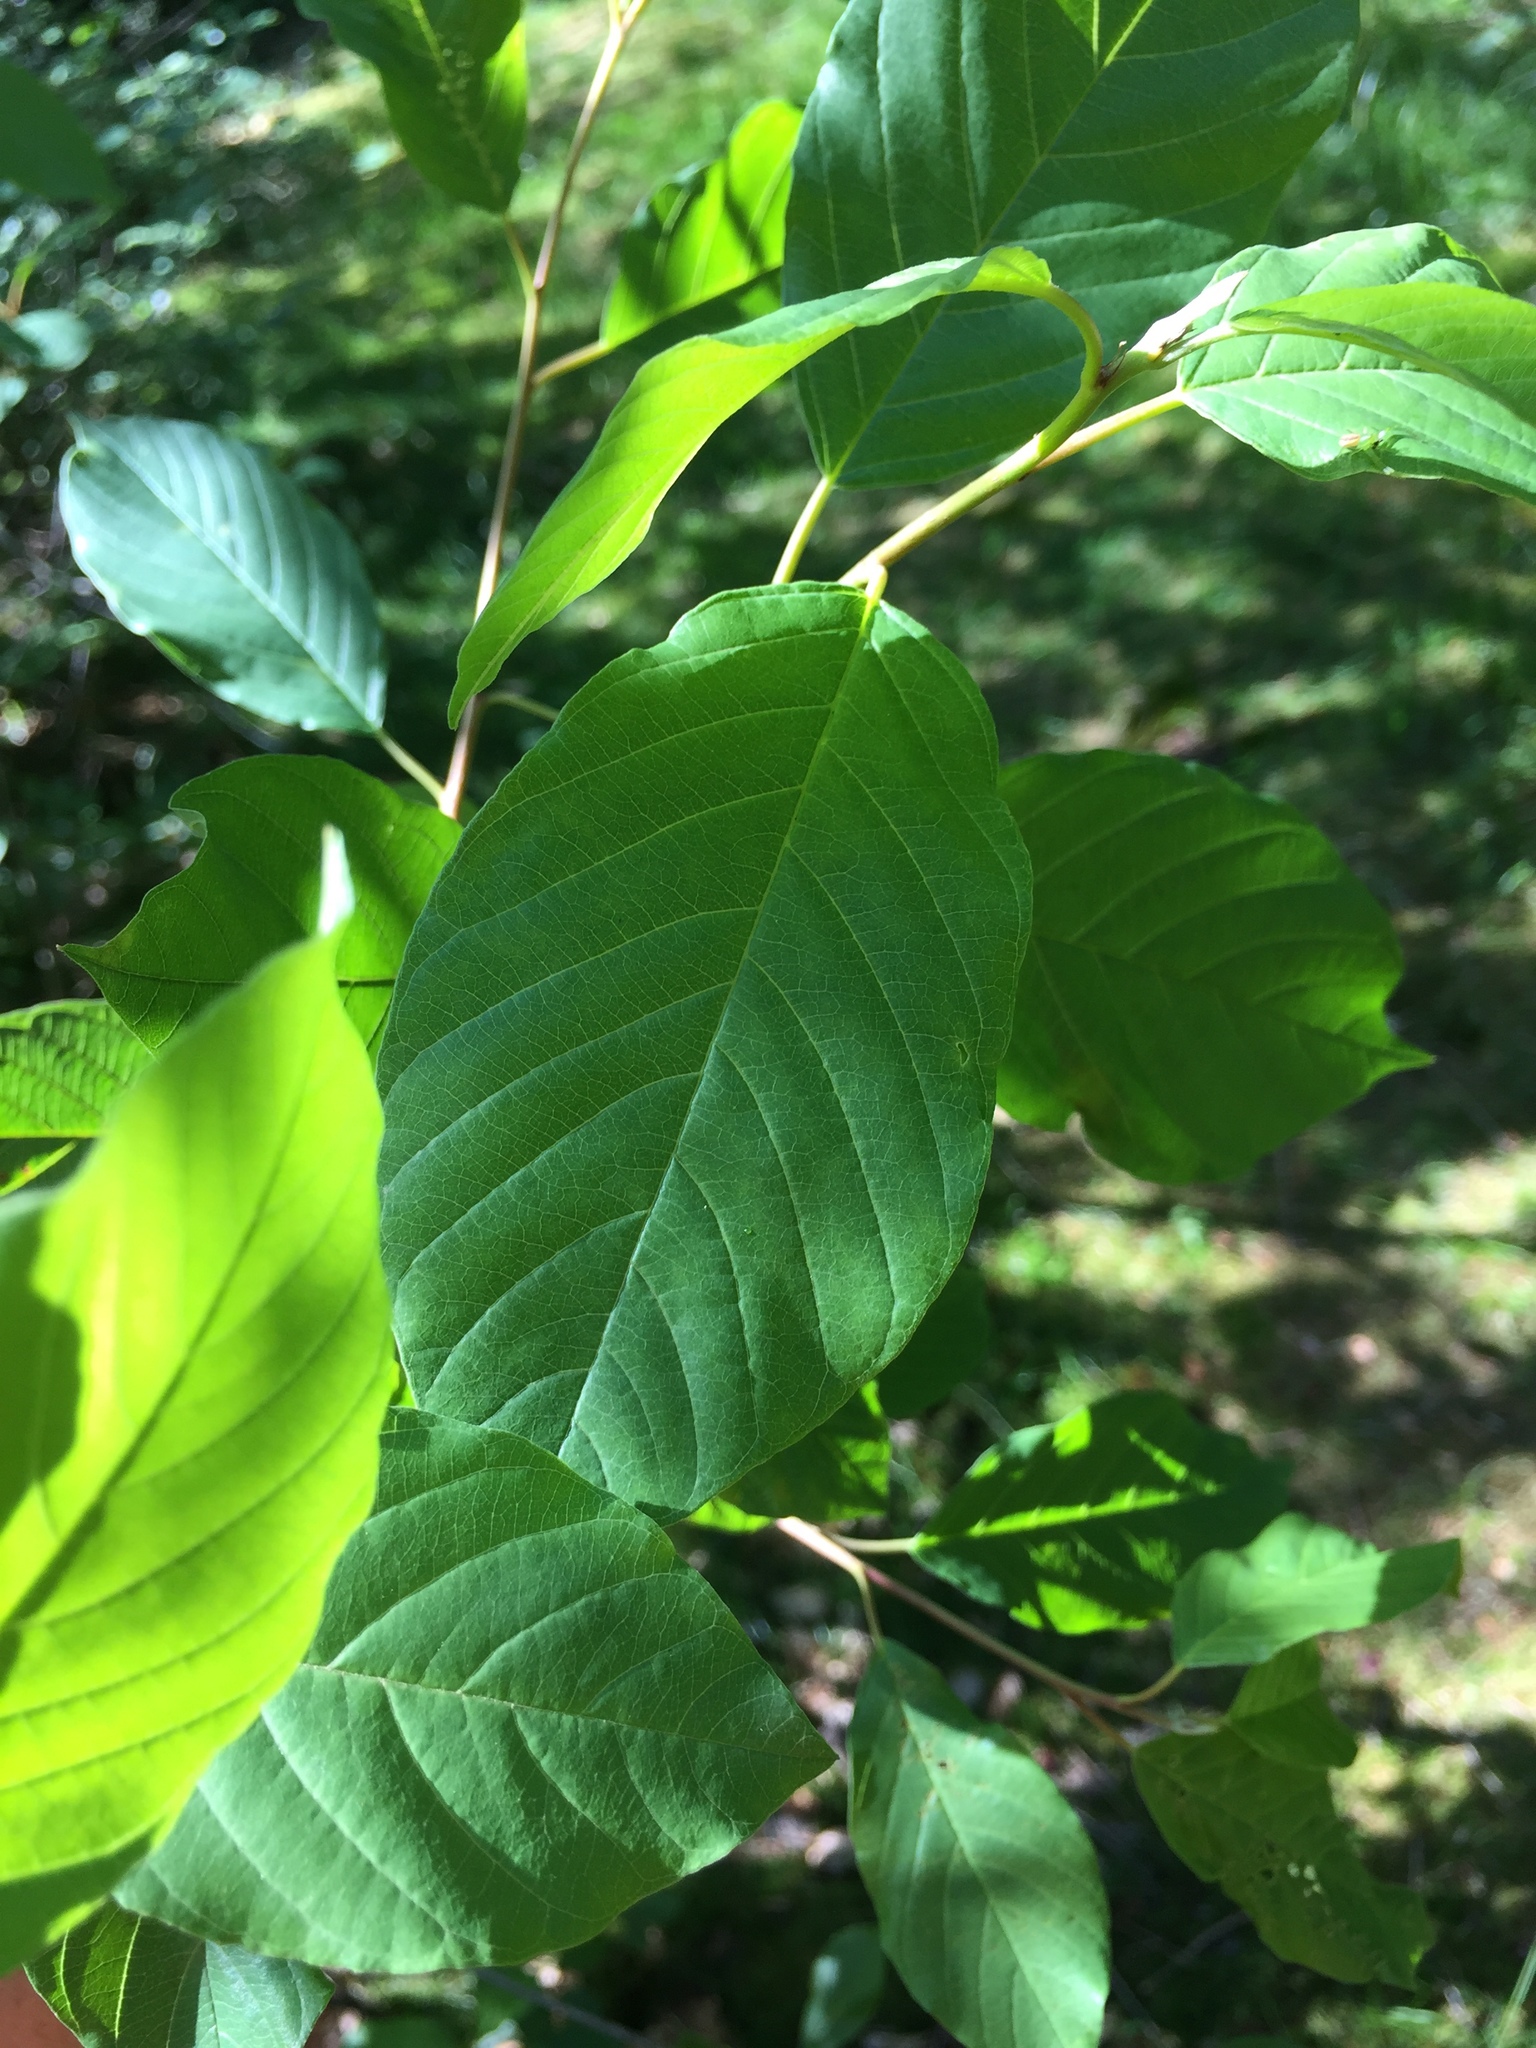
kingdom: Plantae
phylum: Tracheophyta
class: Magnoliopsida
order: Rosales
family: Rhamnaceae
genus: Frangula
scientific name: Frangula alnus
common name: Alder buckthorn
